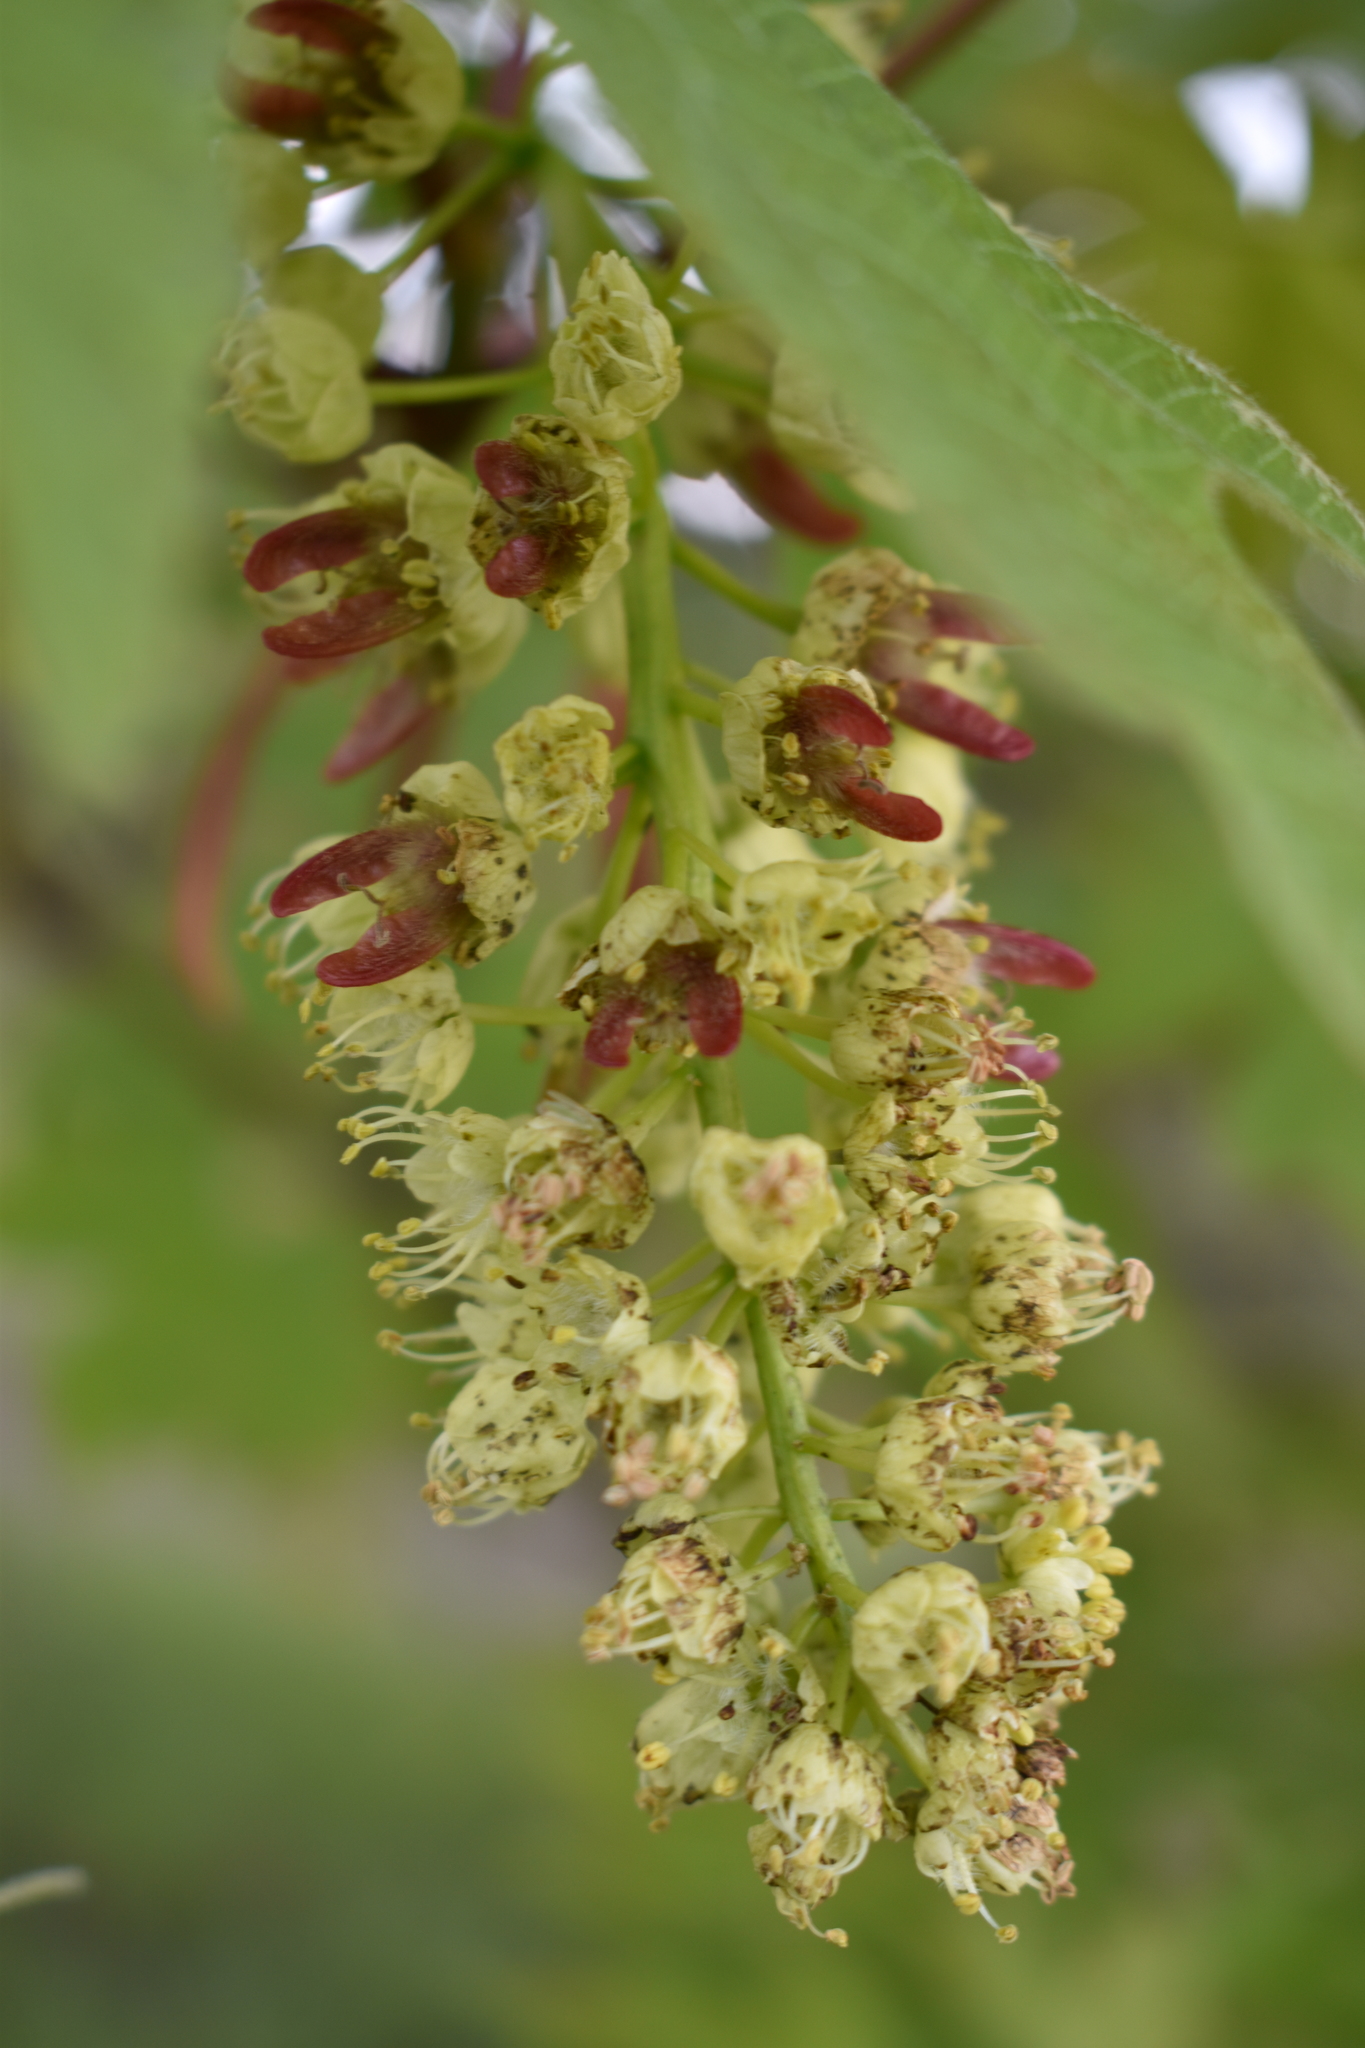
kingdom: Plantae
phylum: Tracheophyta
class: Magnoliopsida
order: Sapindales
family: Sapindaceae
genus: Acer
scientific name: Acer macrophyllum
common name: Oregon maple
